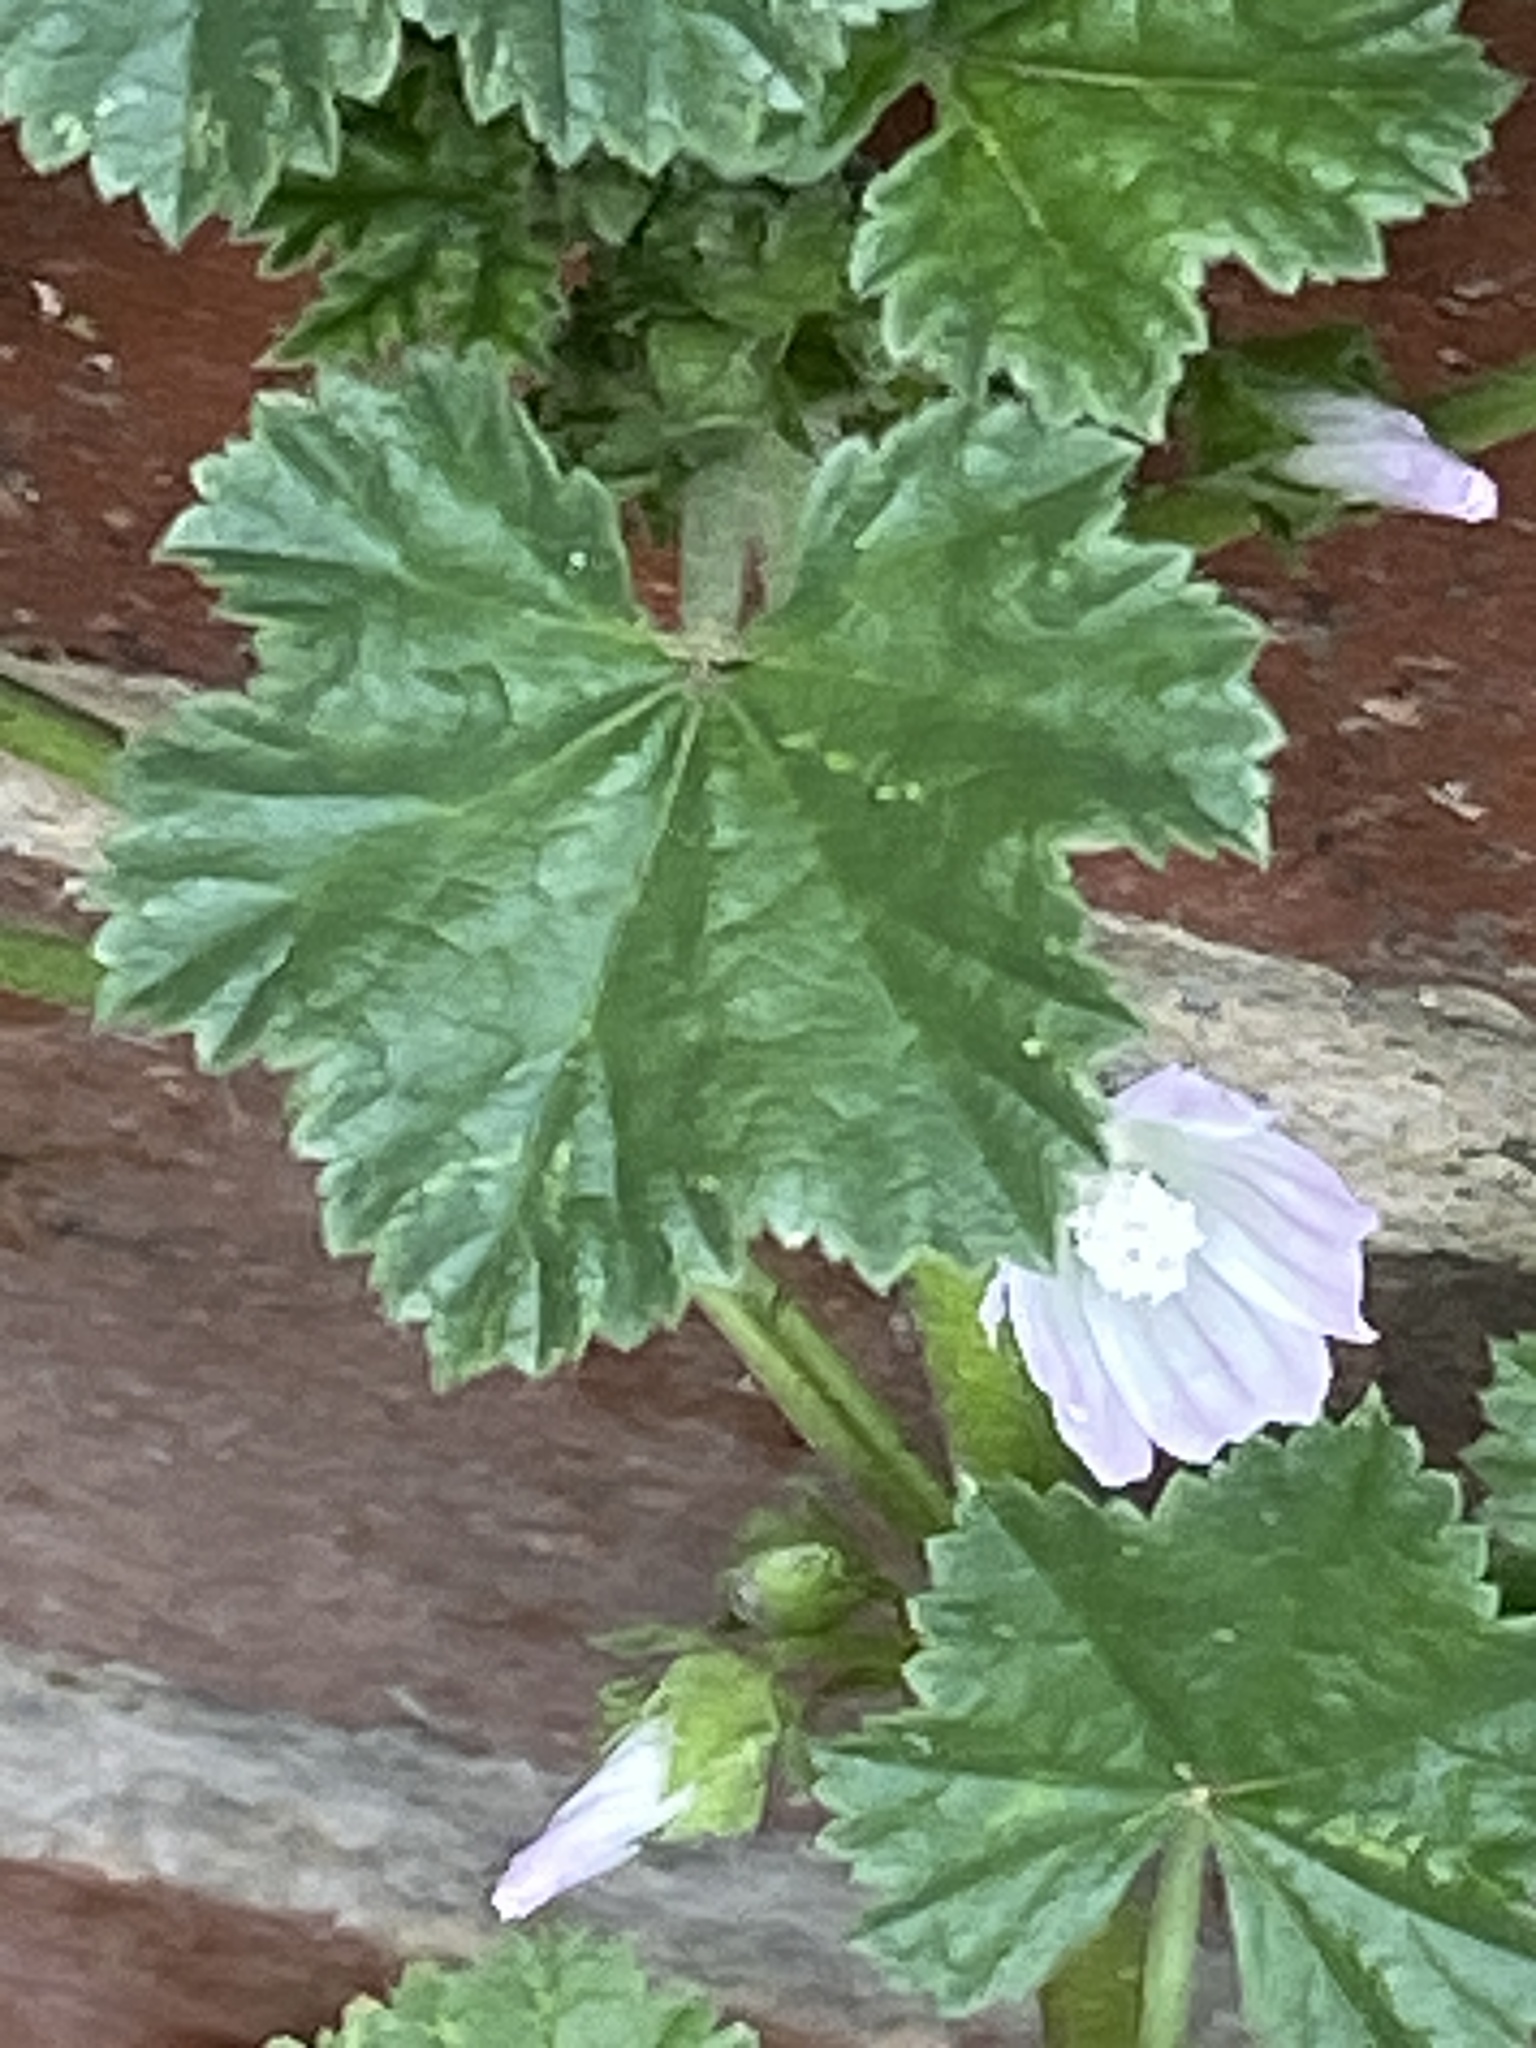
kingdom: Plantae
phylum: Tracheophyta
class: Magnoliopsida
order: Malvales
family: Malvaceae
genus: Malva
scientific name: Malva neglecta
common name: Common mallow
